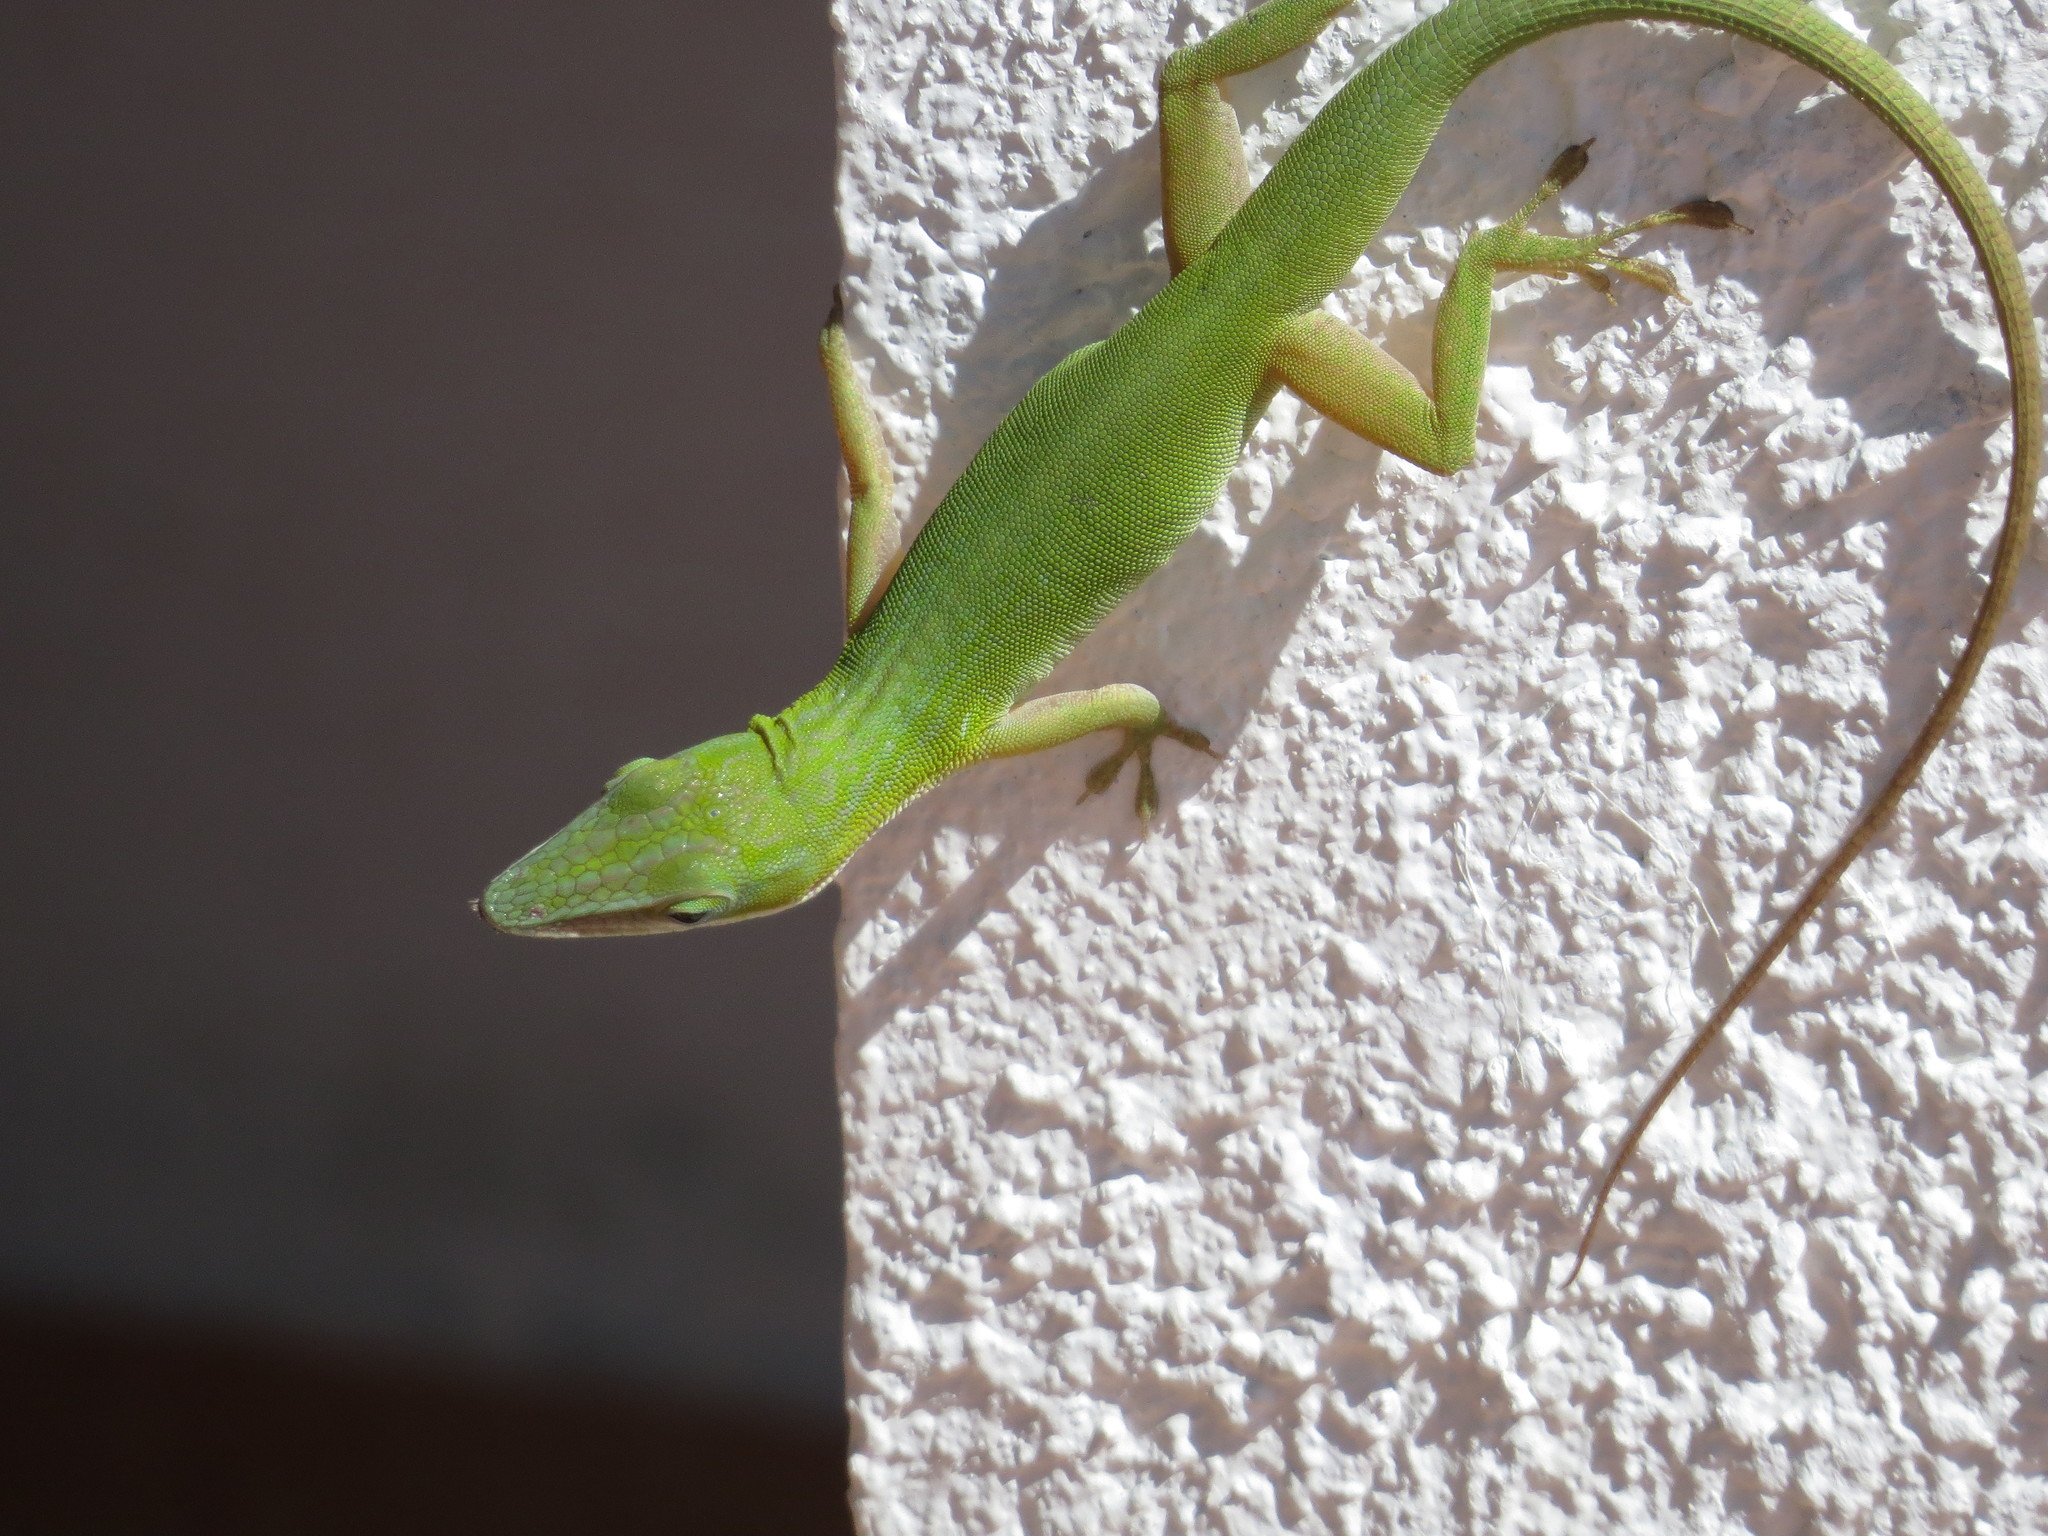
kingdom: Animalia
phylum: Chordata
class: Squamata
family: Dactyloidae
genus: Anolis
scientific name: Anolis porcatus
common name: Cuban green anole
